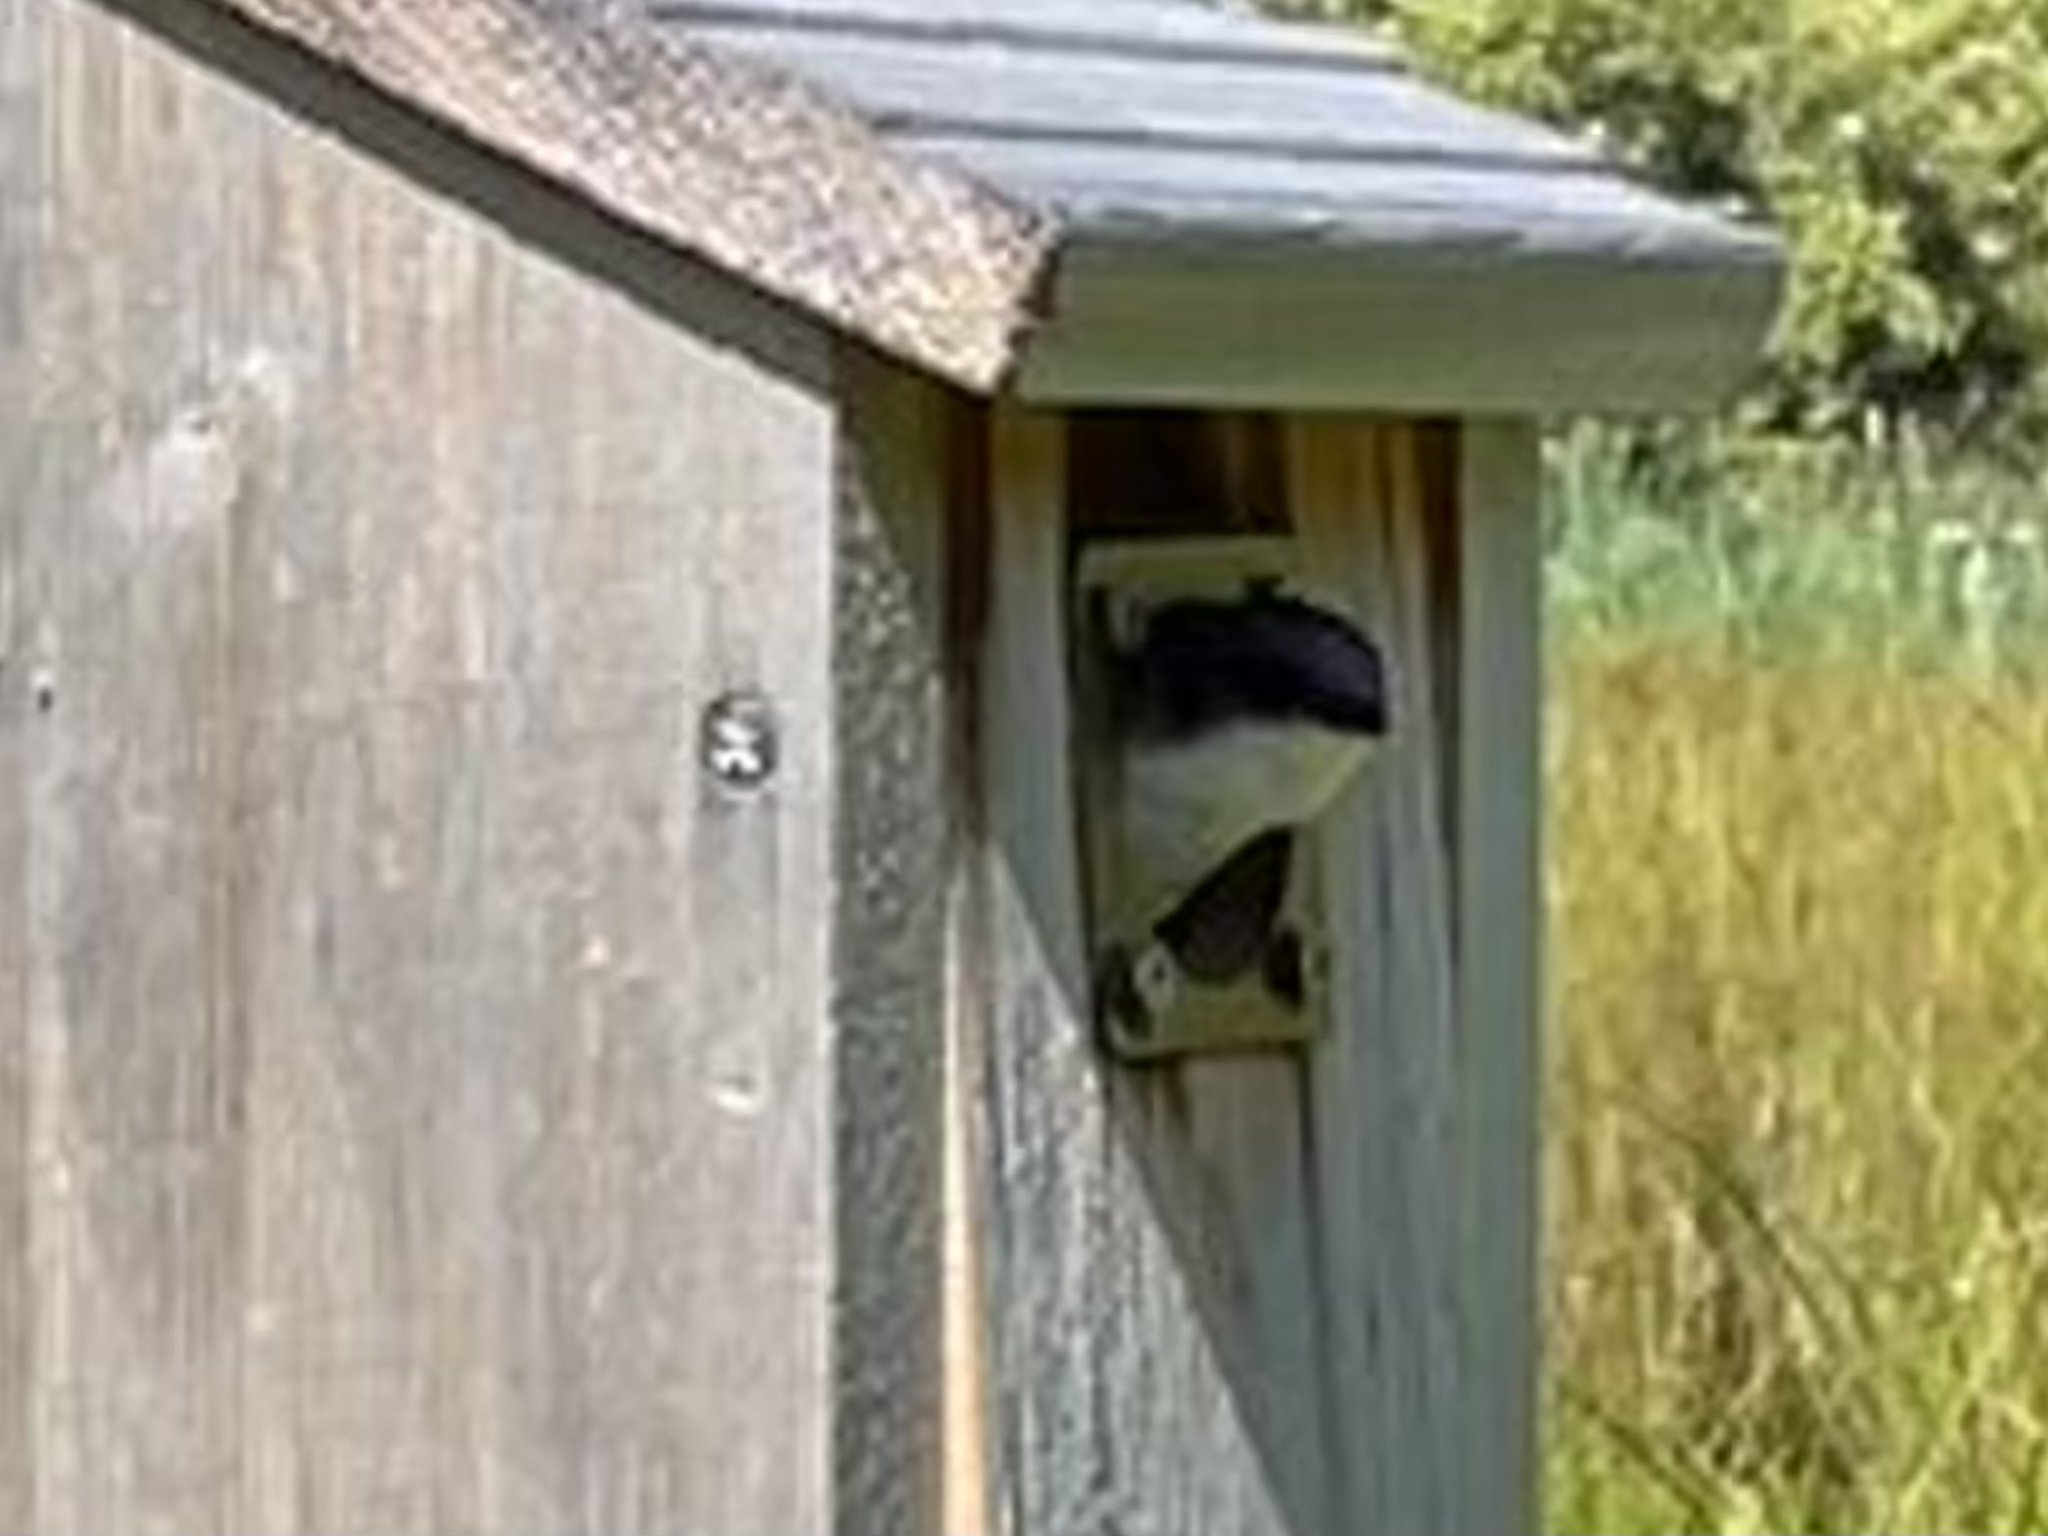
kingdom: Animalia
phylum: Chordata
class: Aves
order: Passeriformes
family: Hirundinidae
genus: Tachycineta
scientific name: Tachycineta bicolor
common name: Tree swallow
